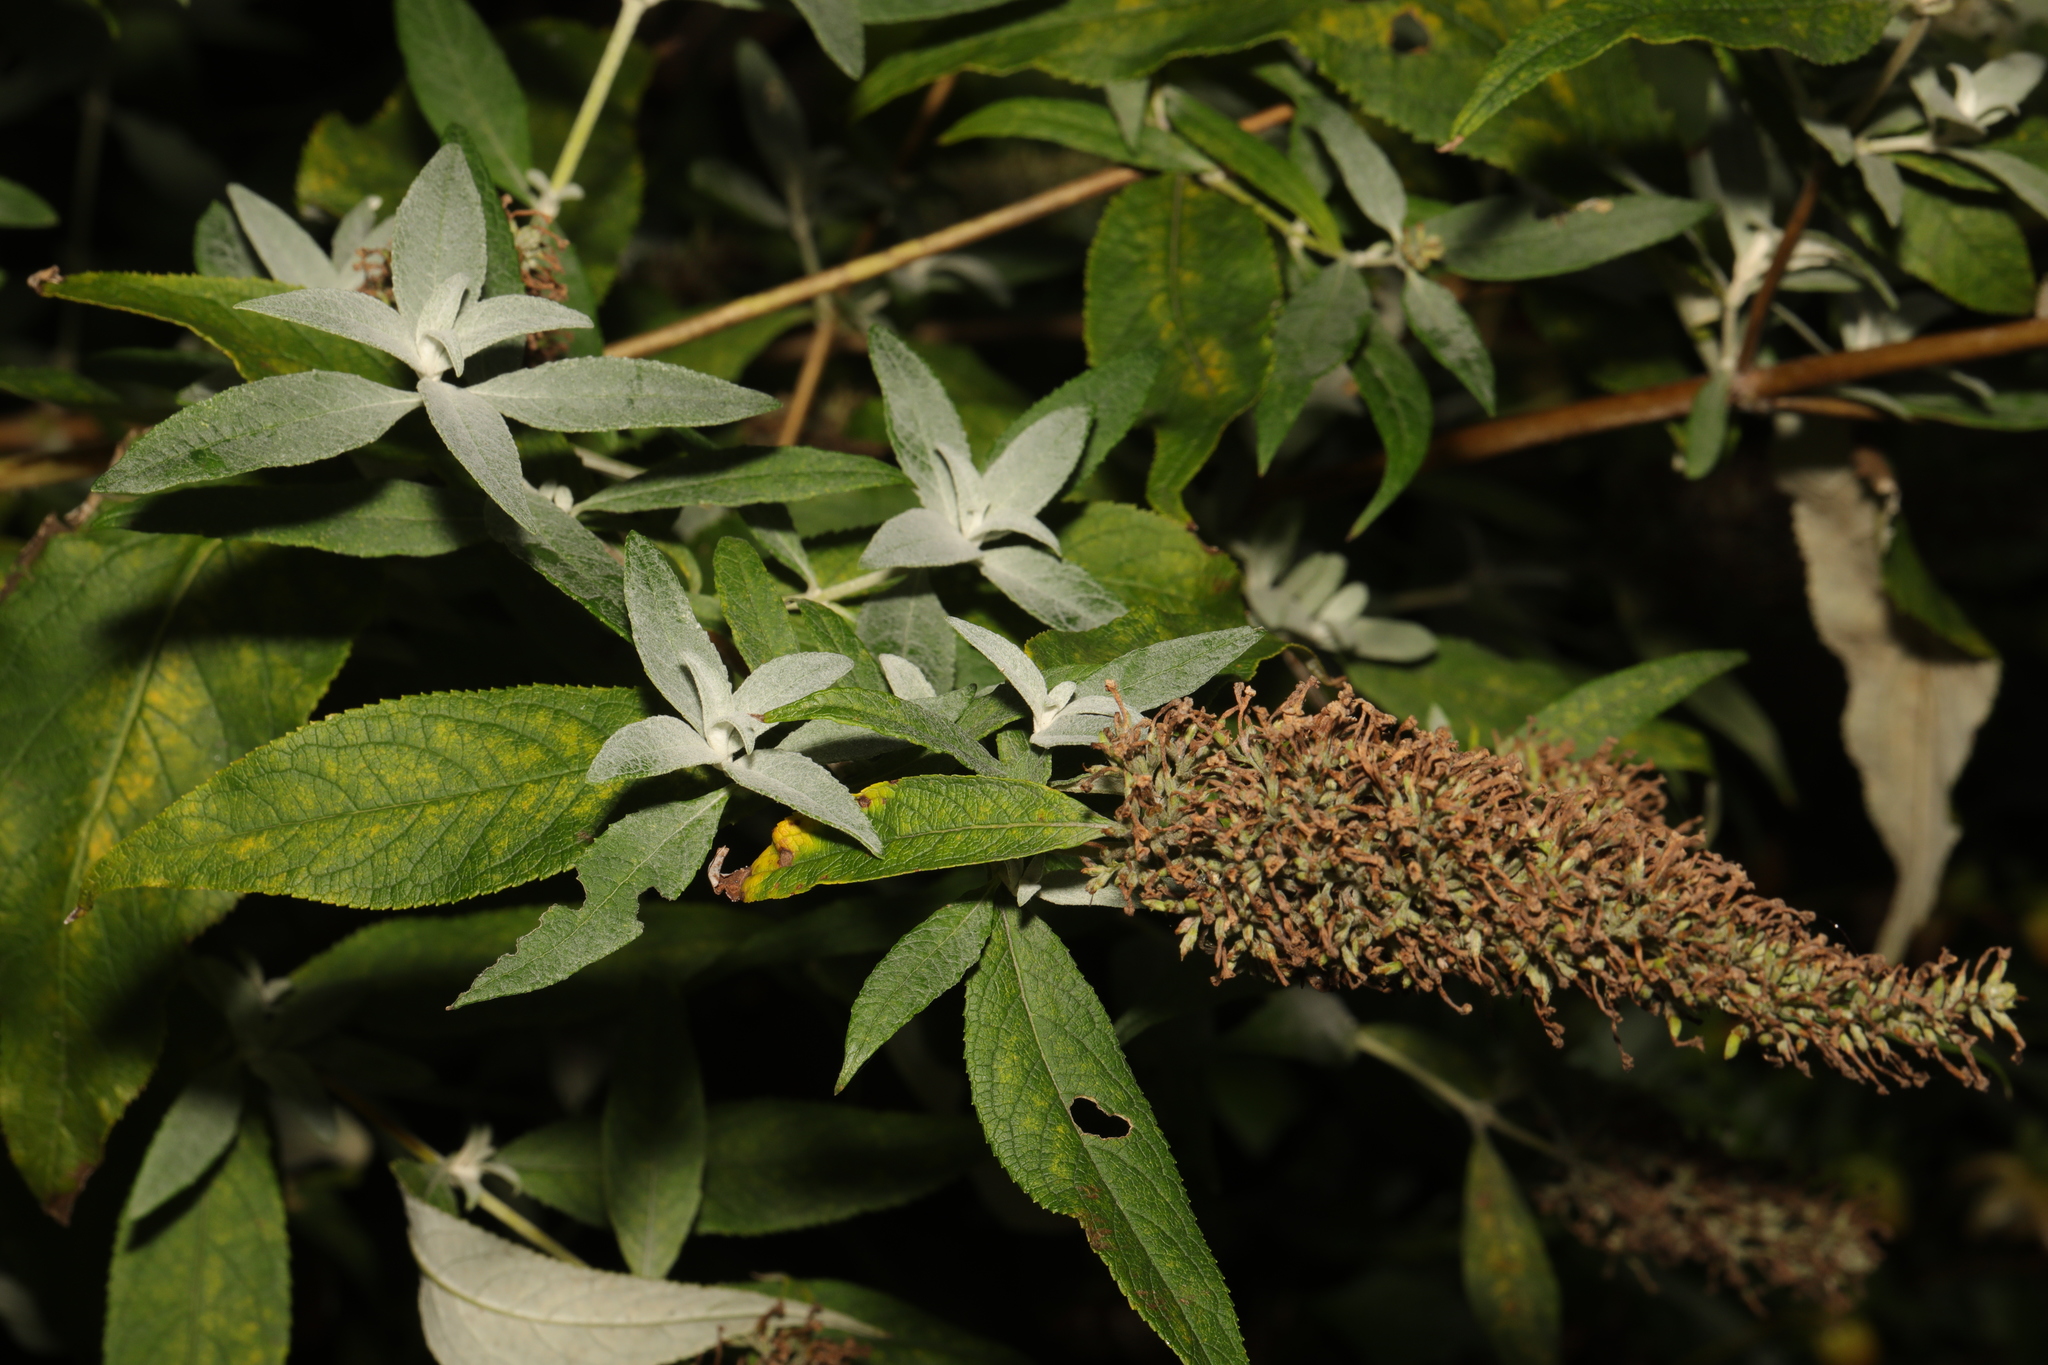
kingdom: Plantae
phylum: Tracheophyta
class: Magnoliopsida
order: Lamiales
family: Scrophulariaceae
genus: Buddleja
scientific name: Buddleja davidii
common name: Butterfly-bush
